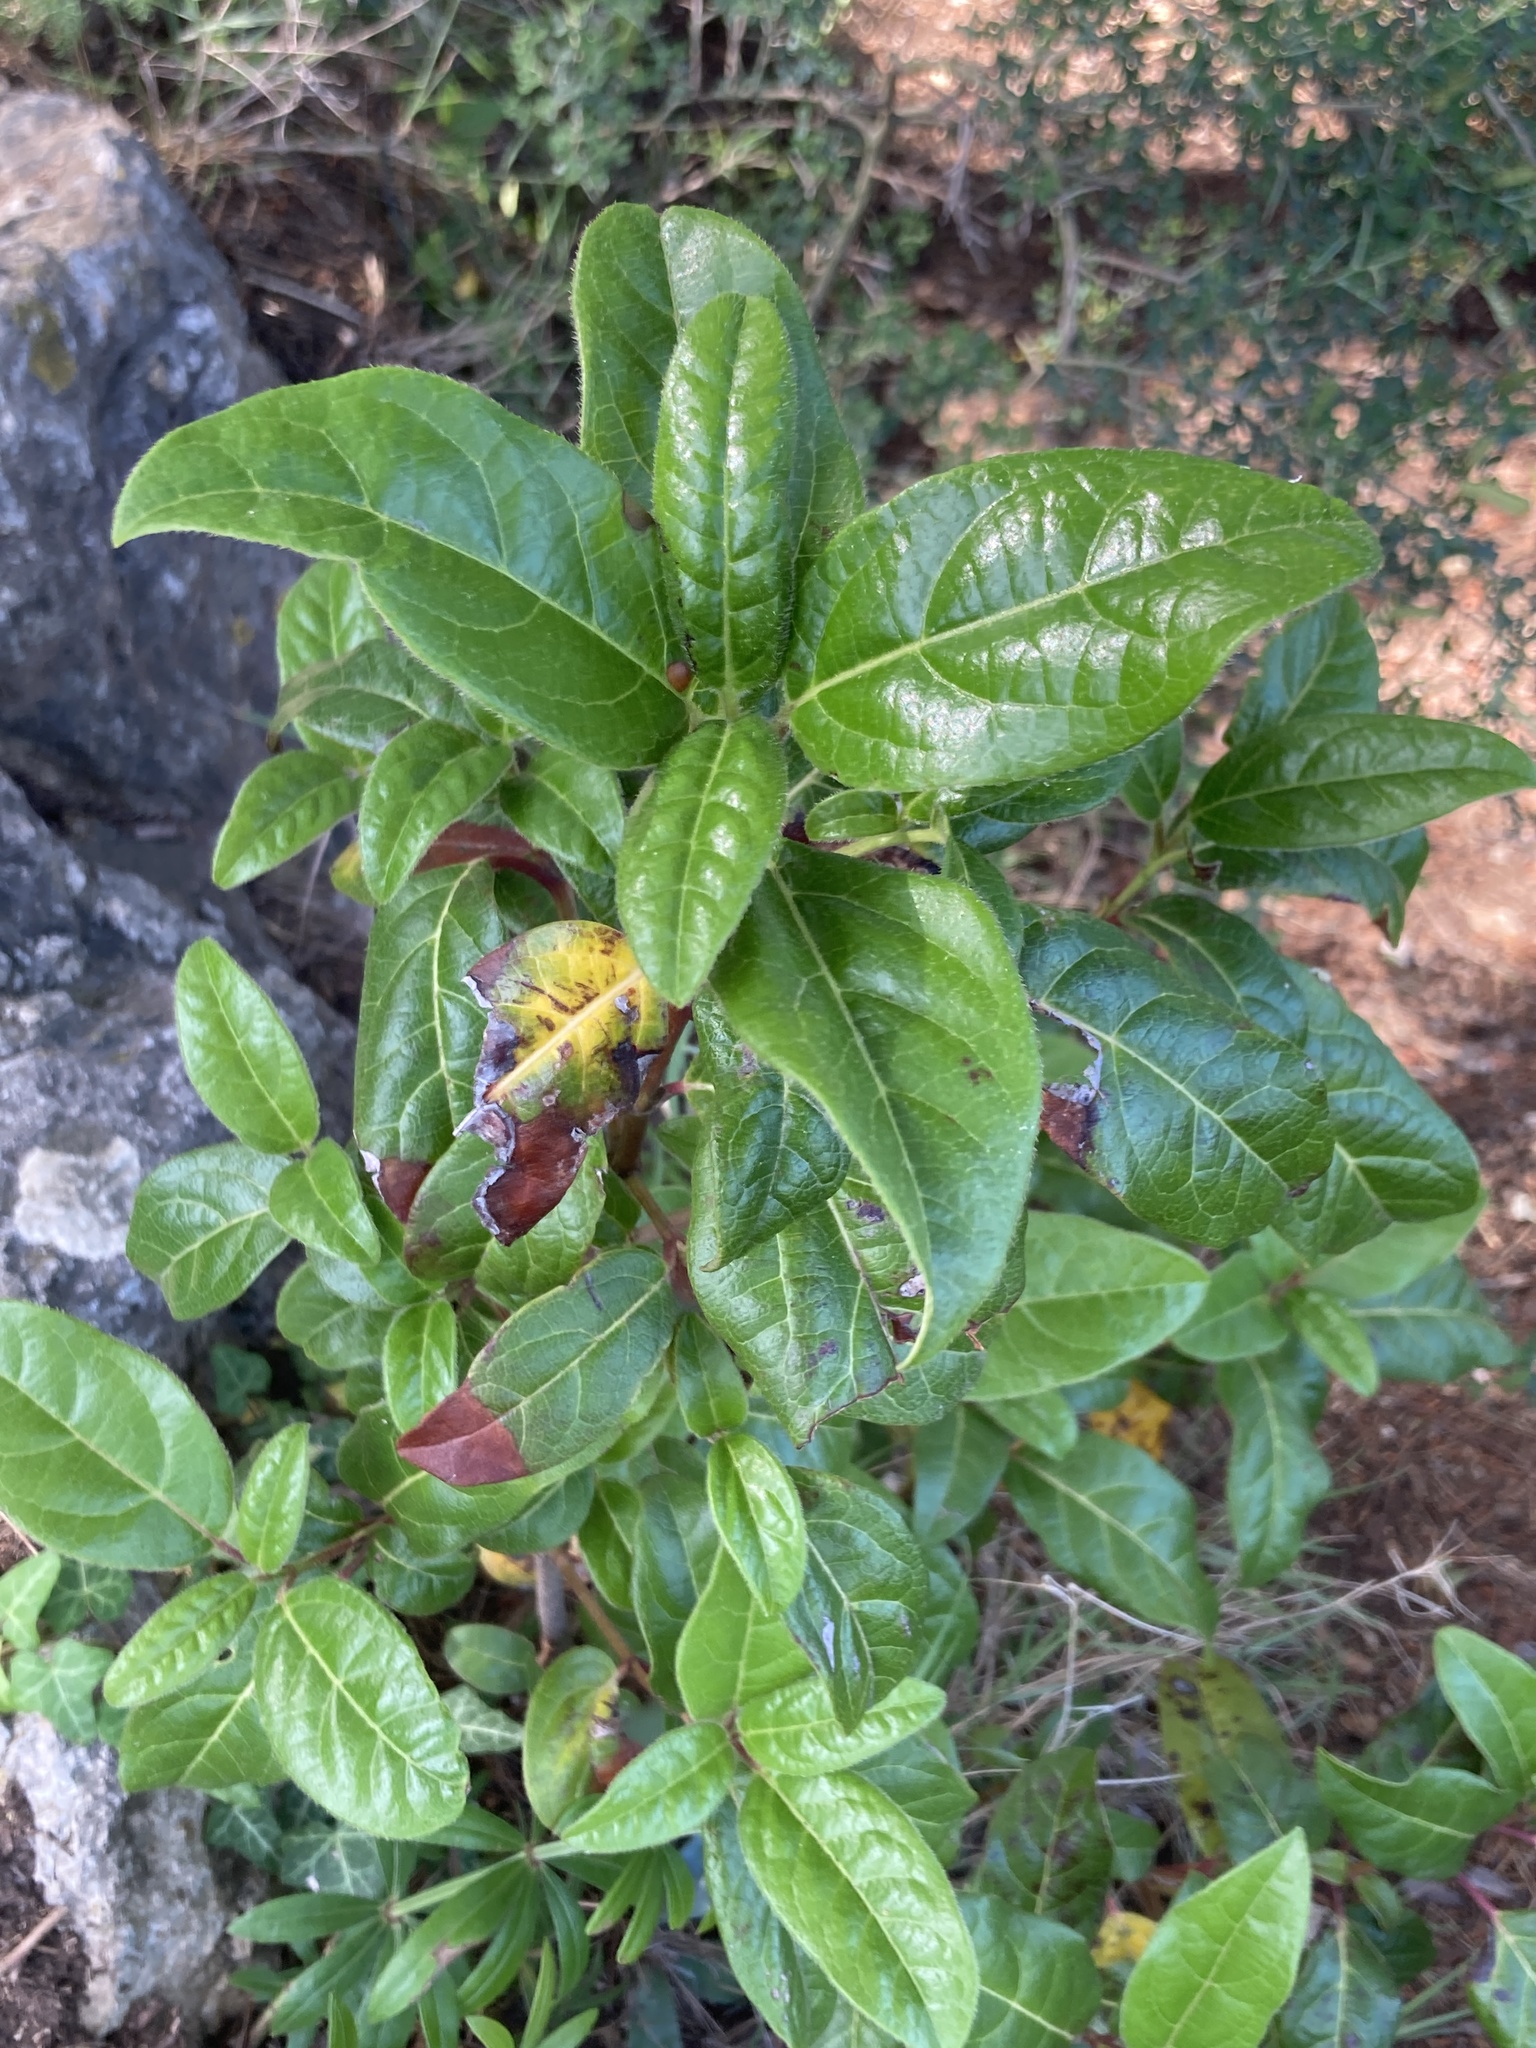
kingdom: Plantae
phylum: Tracheophyta
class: Magnoliopsida
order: Dipsacales
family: Viburnaceae
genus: Viburnum
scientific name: Viburnum tinus
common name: Laurustinus
